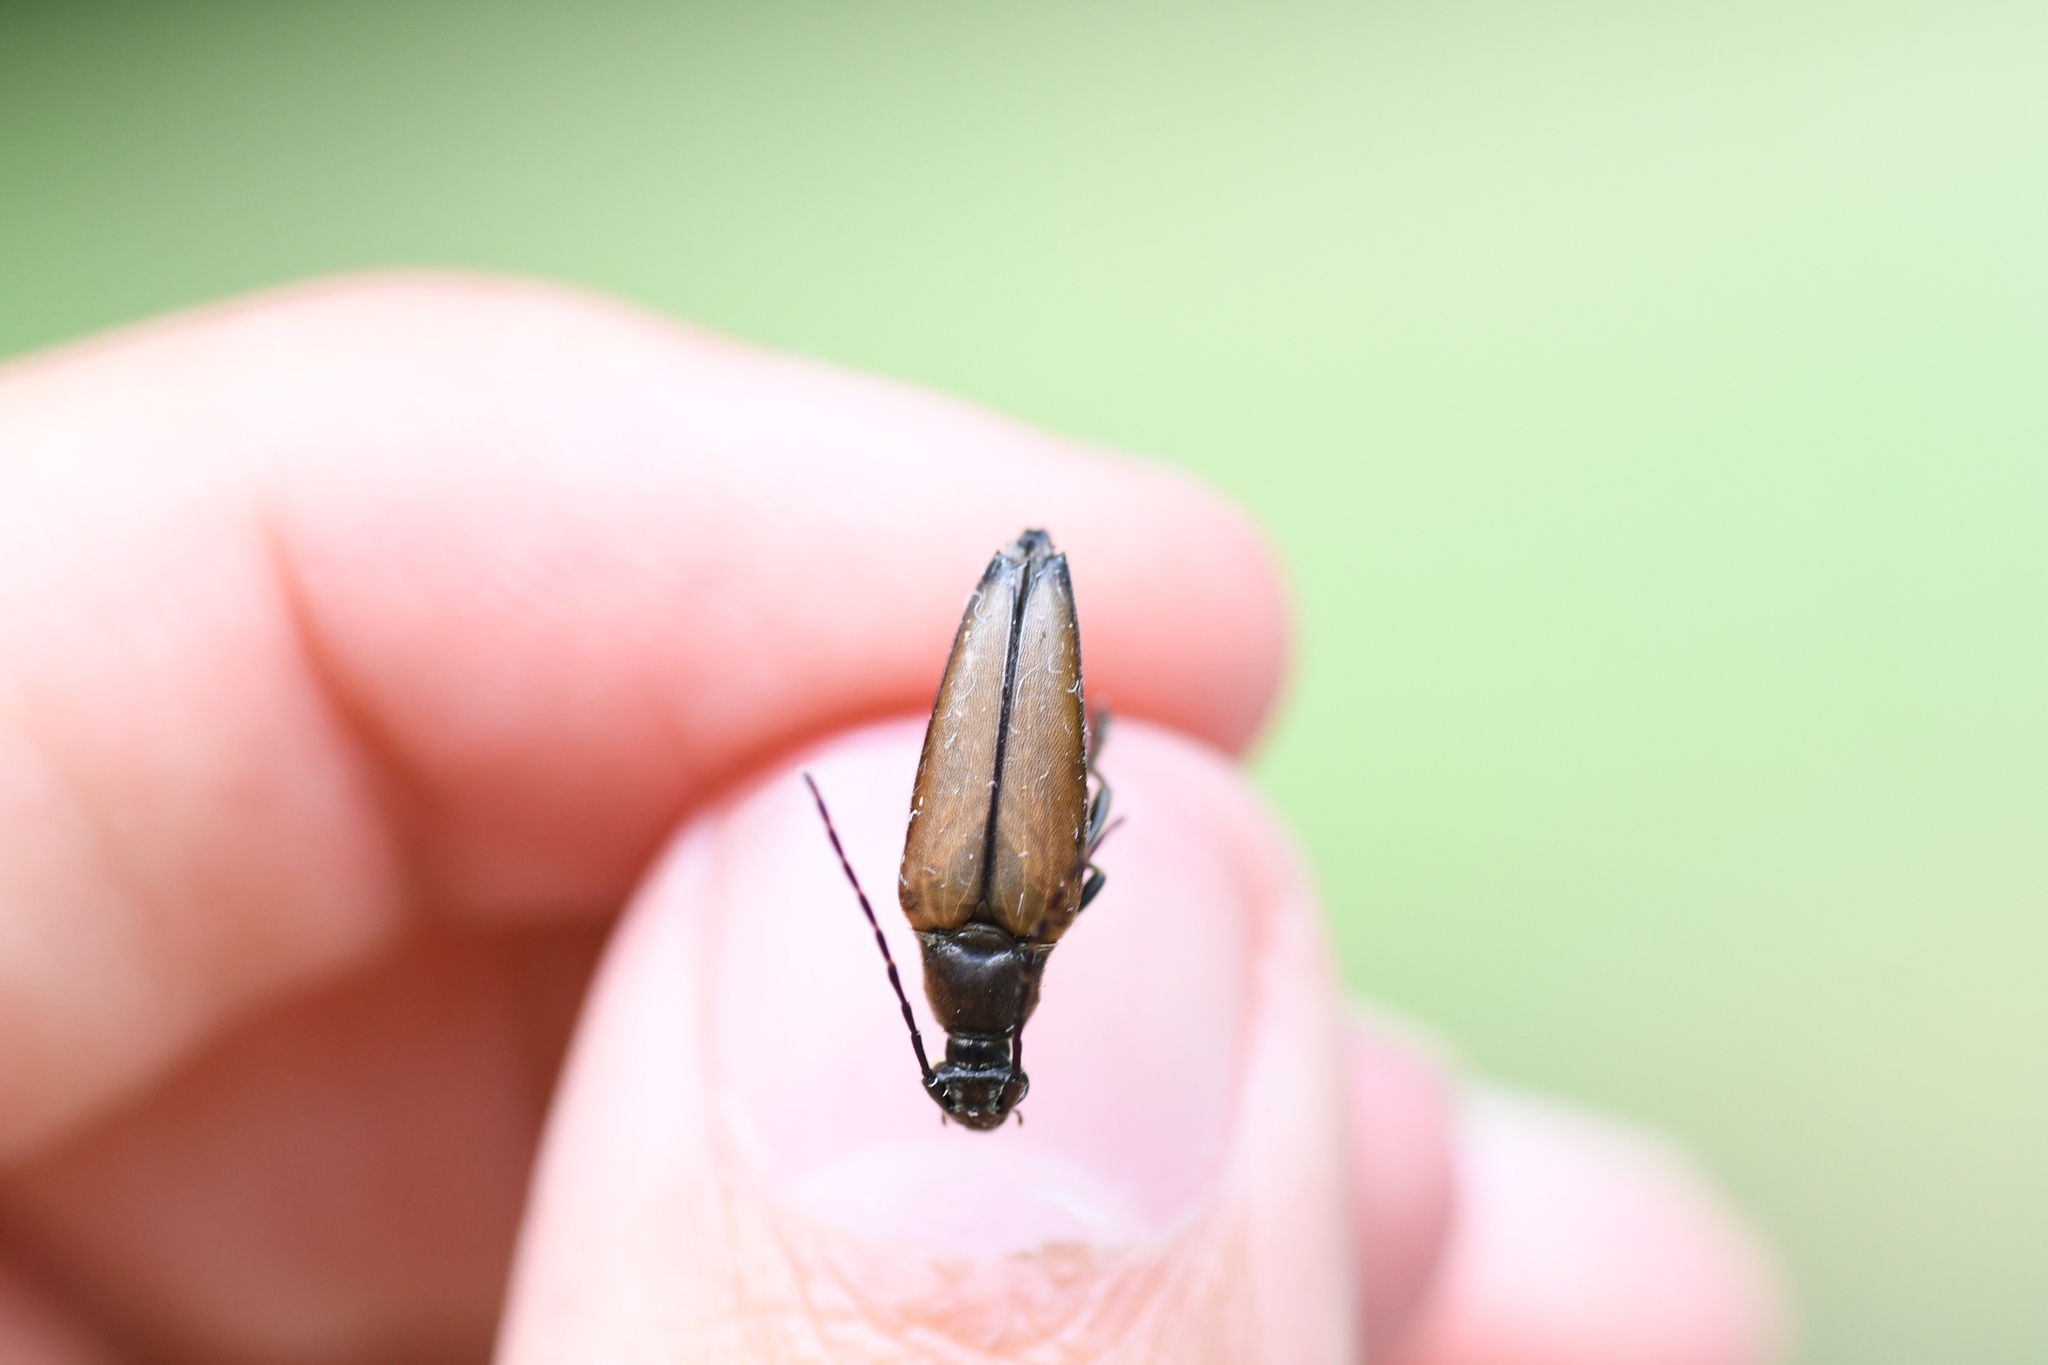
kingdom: Animalia
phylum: Arthropoda
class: Insecta
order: Coleoptera
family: Cerambycidae
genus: Etorofus
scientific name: Etorofus
